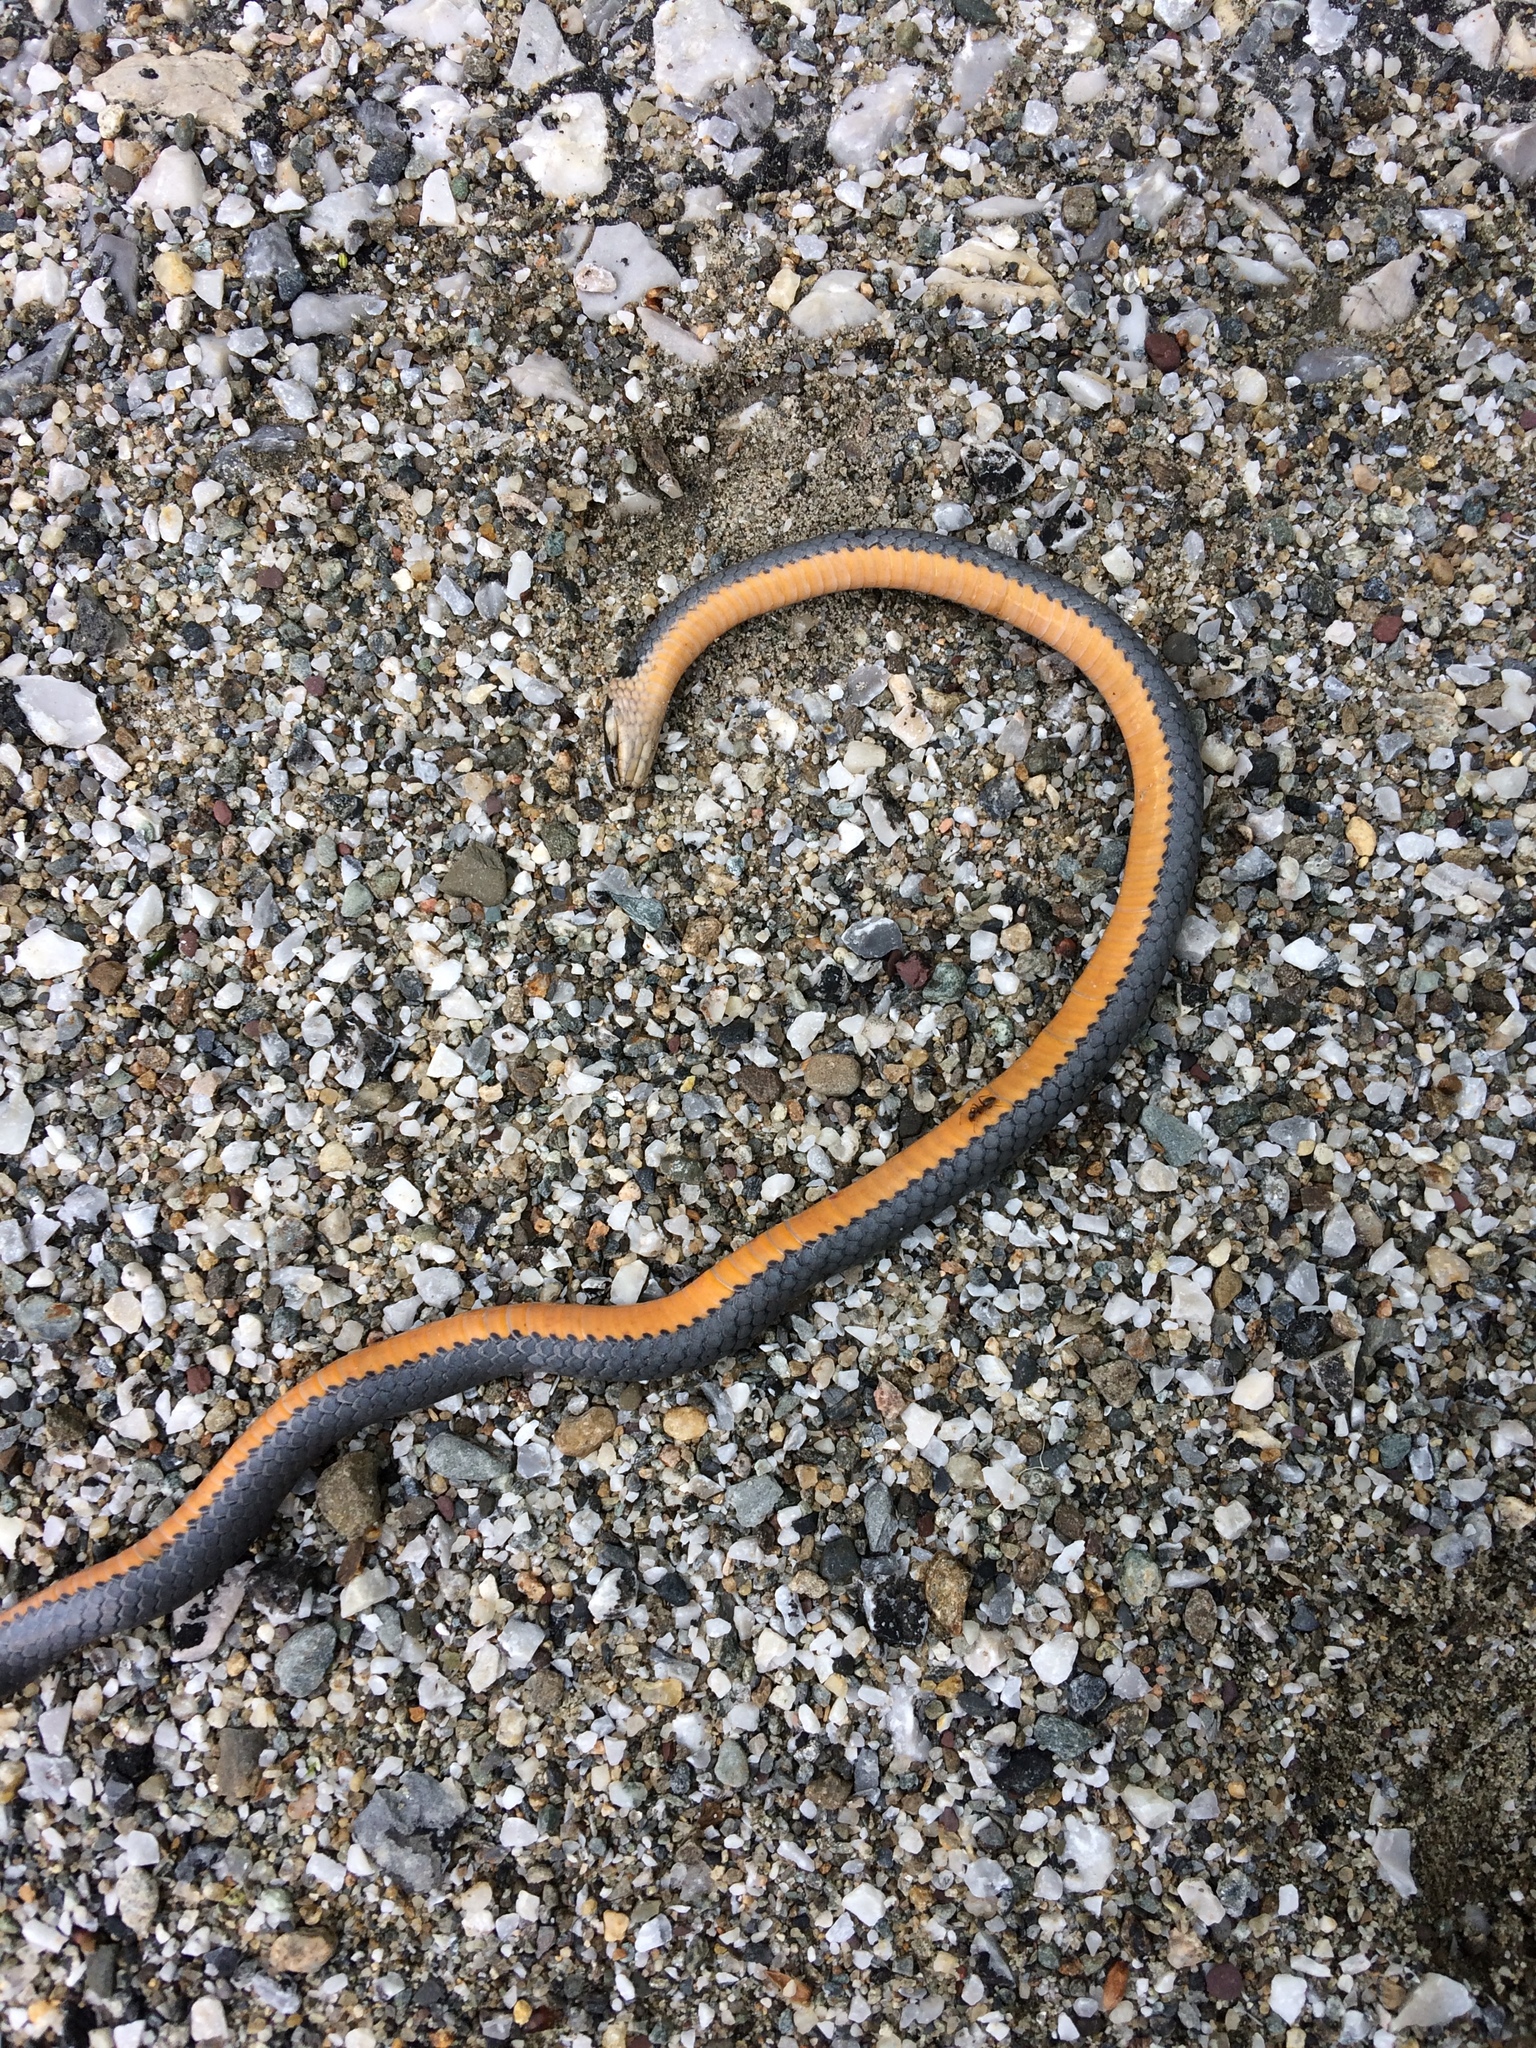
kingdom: Animalia
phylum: Chordata
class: Squamata
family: Colubridae
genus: Diadophis
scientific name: Diadophis punctatus
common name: Ringneck snake
